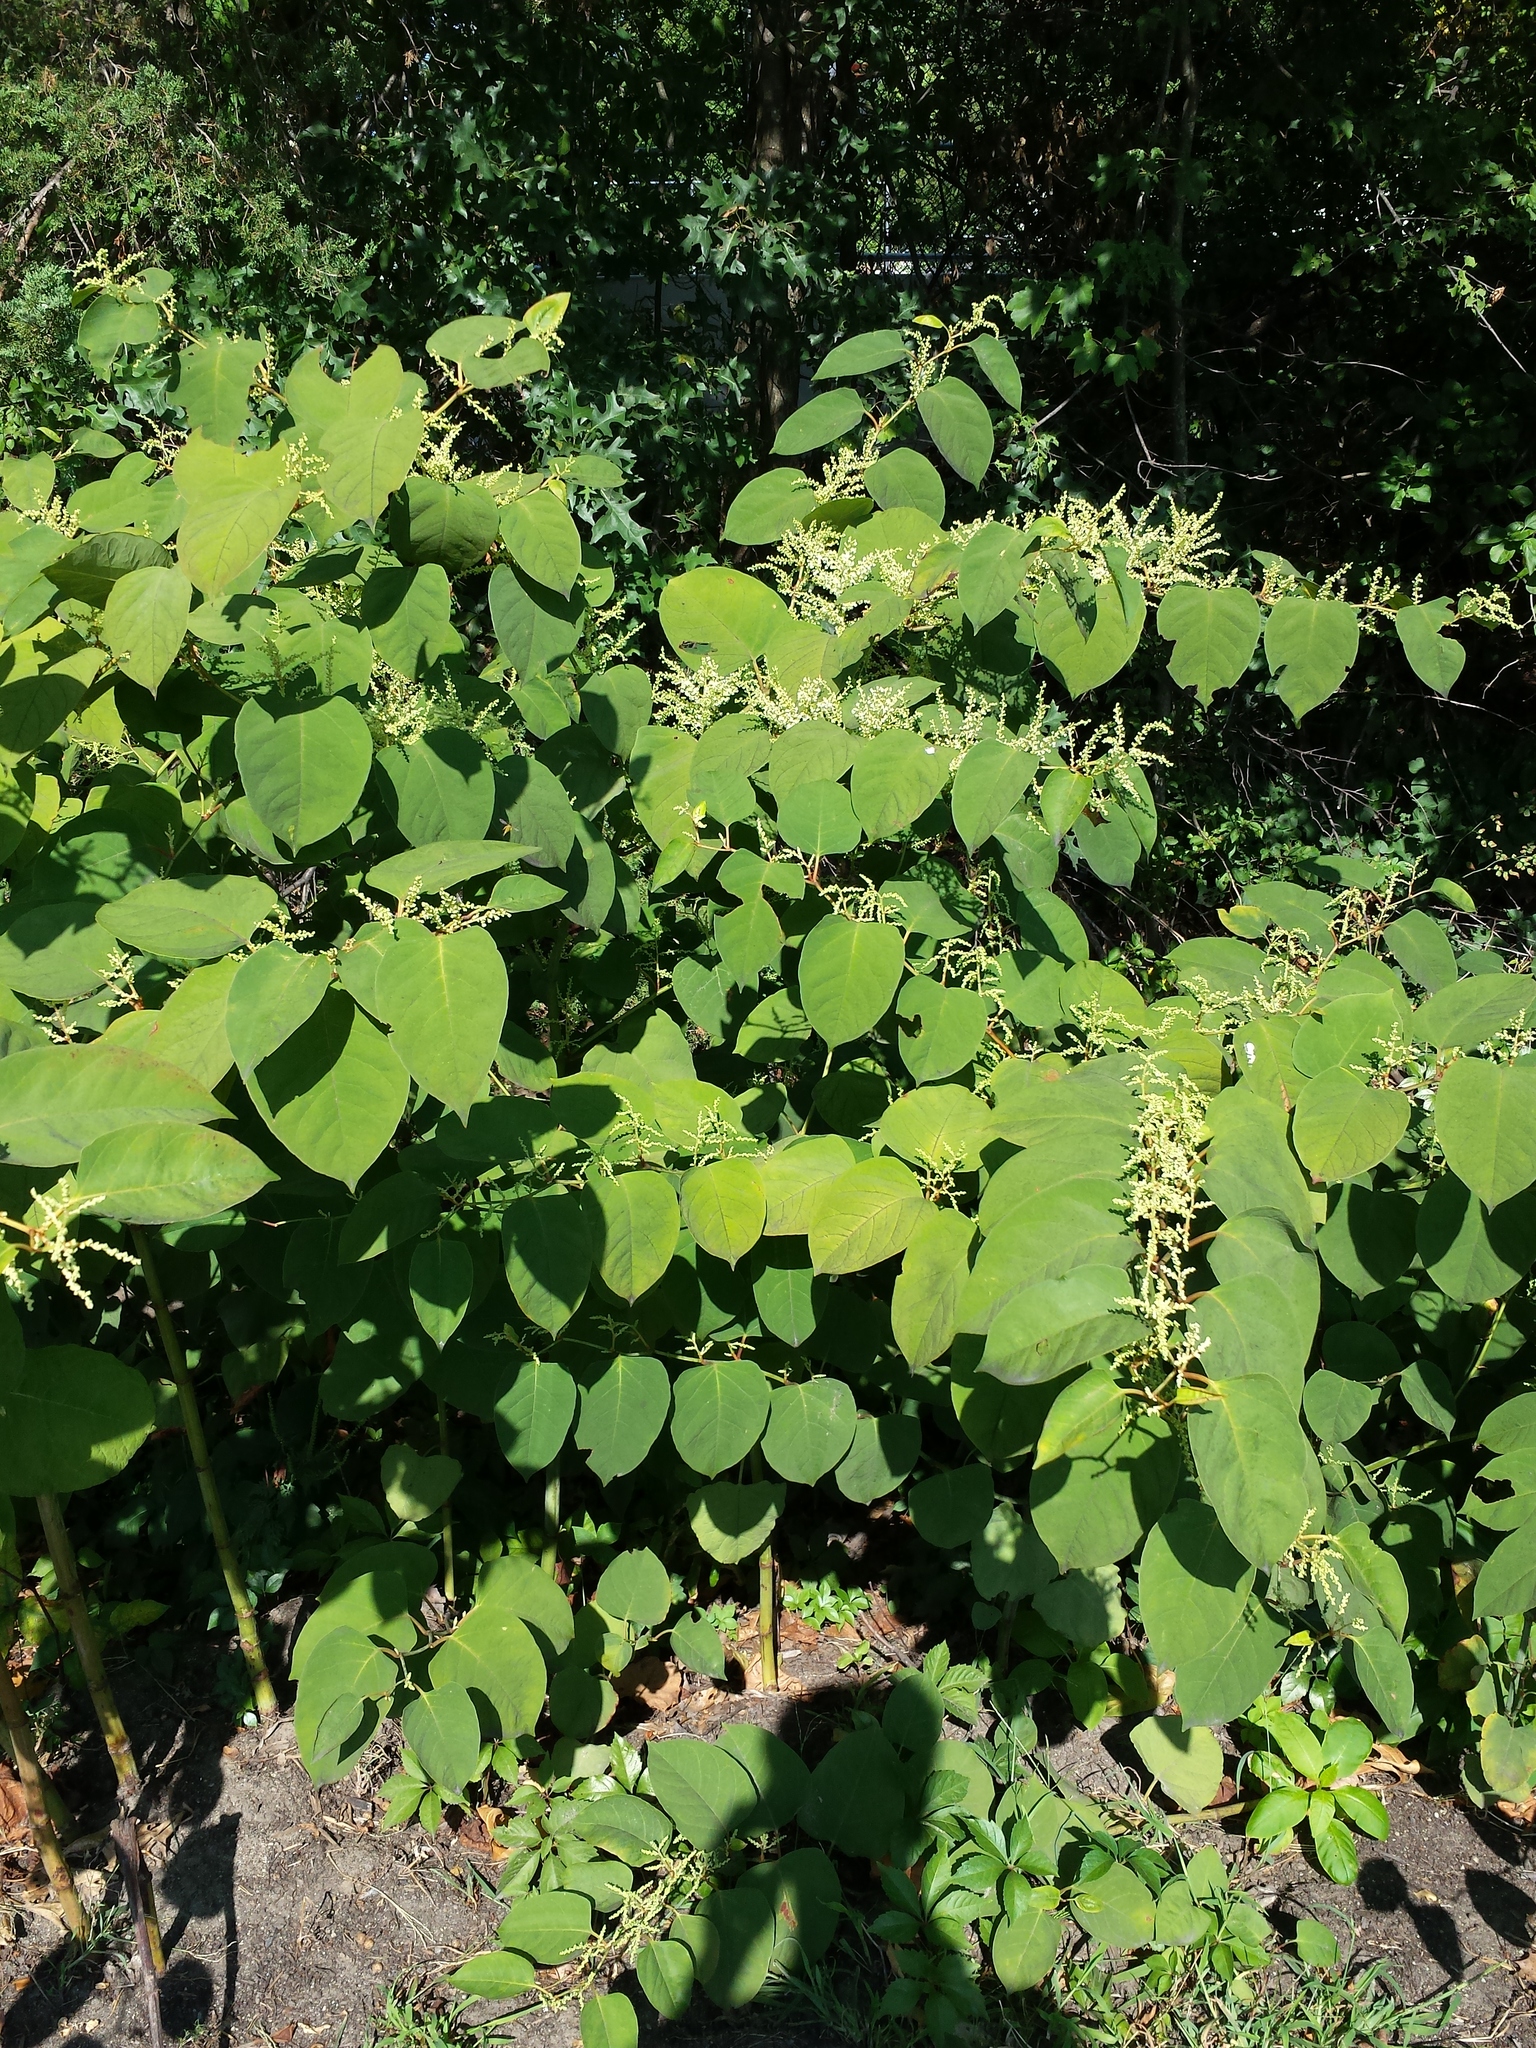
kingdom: Plantae
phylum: Tracheophyta
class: Magnoliopsida
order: Caryophyllales
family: Polygonaceae
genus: Reynoutria
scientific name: Reynoutria japonica
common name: Japanese knotweed
